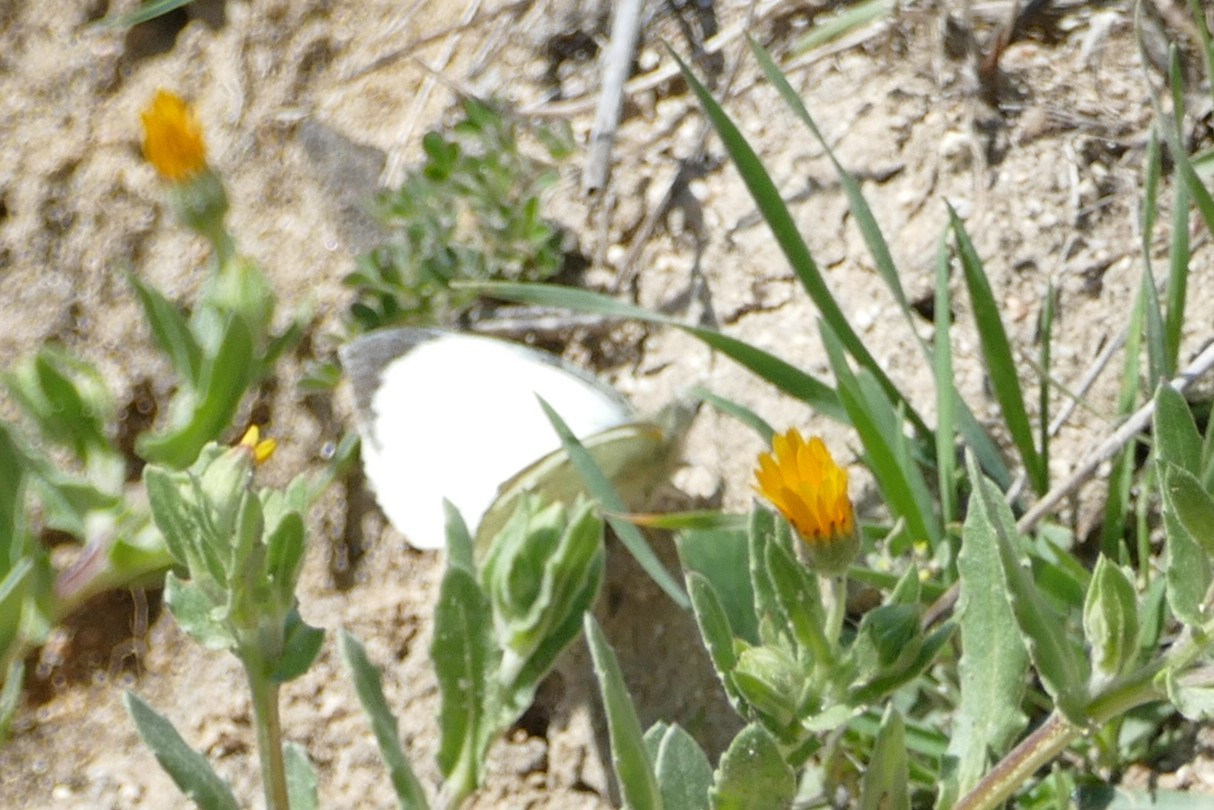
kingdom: Animalia
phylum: Arthropoda
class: Insecta
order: Lepidoptera
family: Pieridae
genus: Pieris
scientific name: Pieris brassicae
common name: Large white
